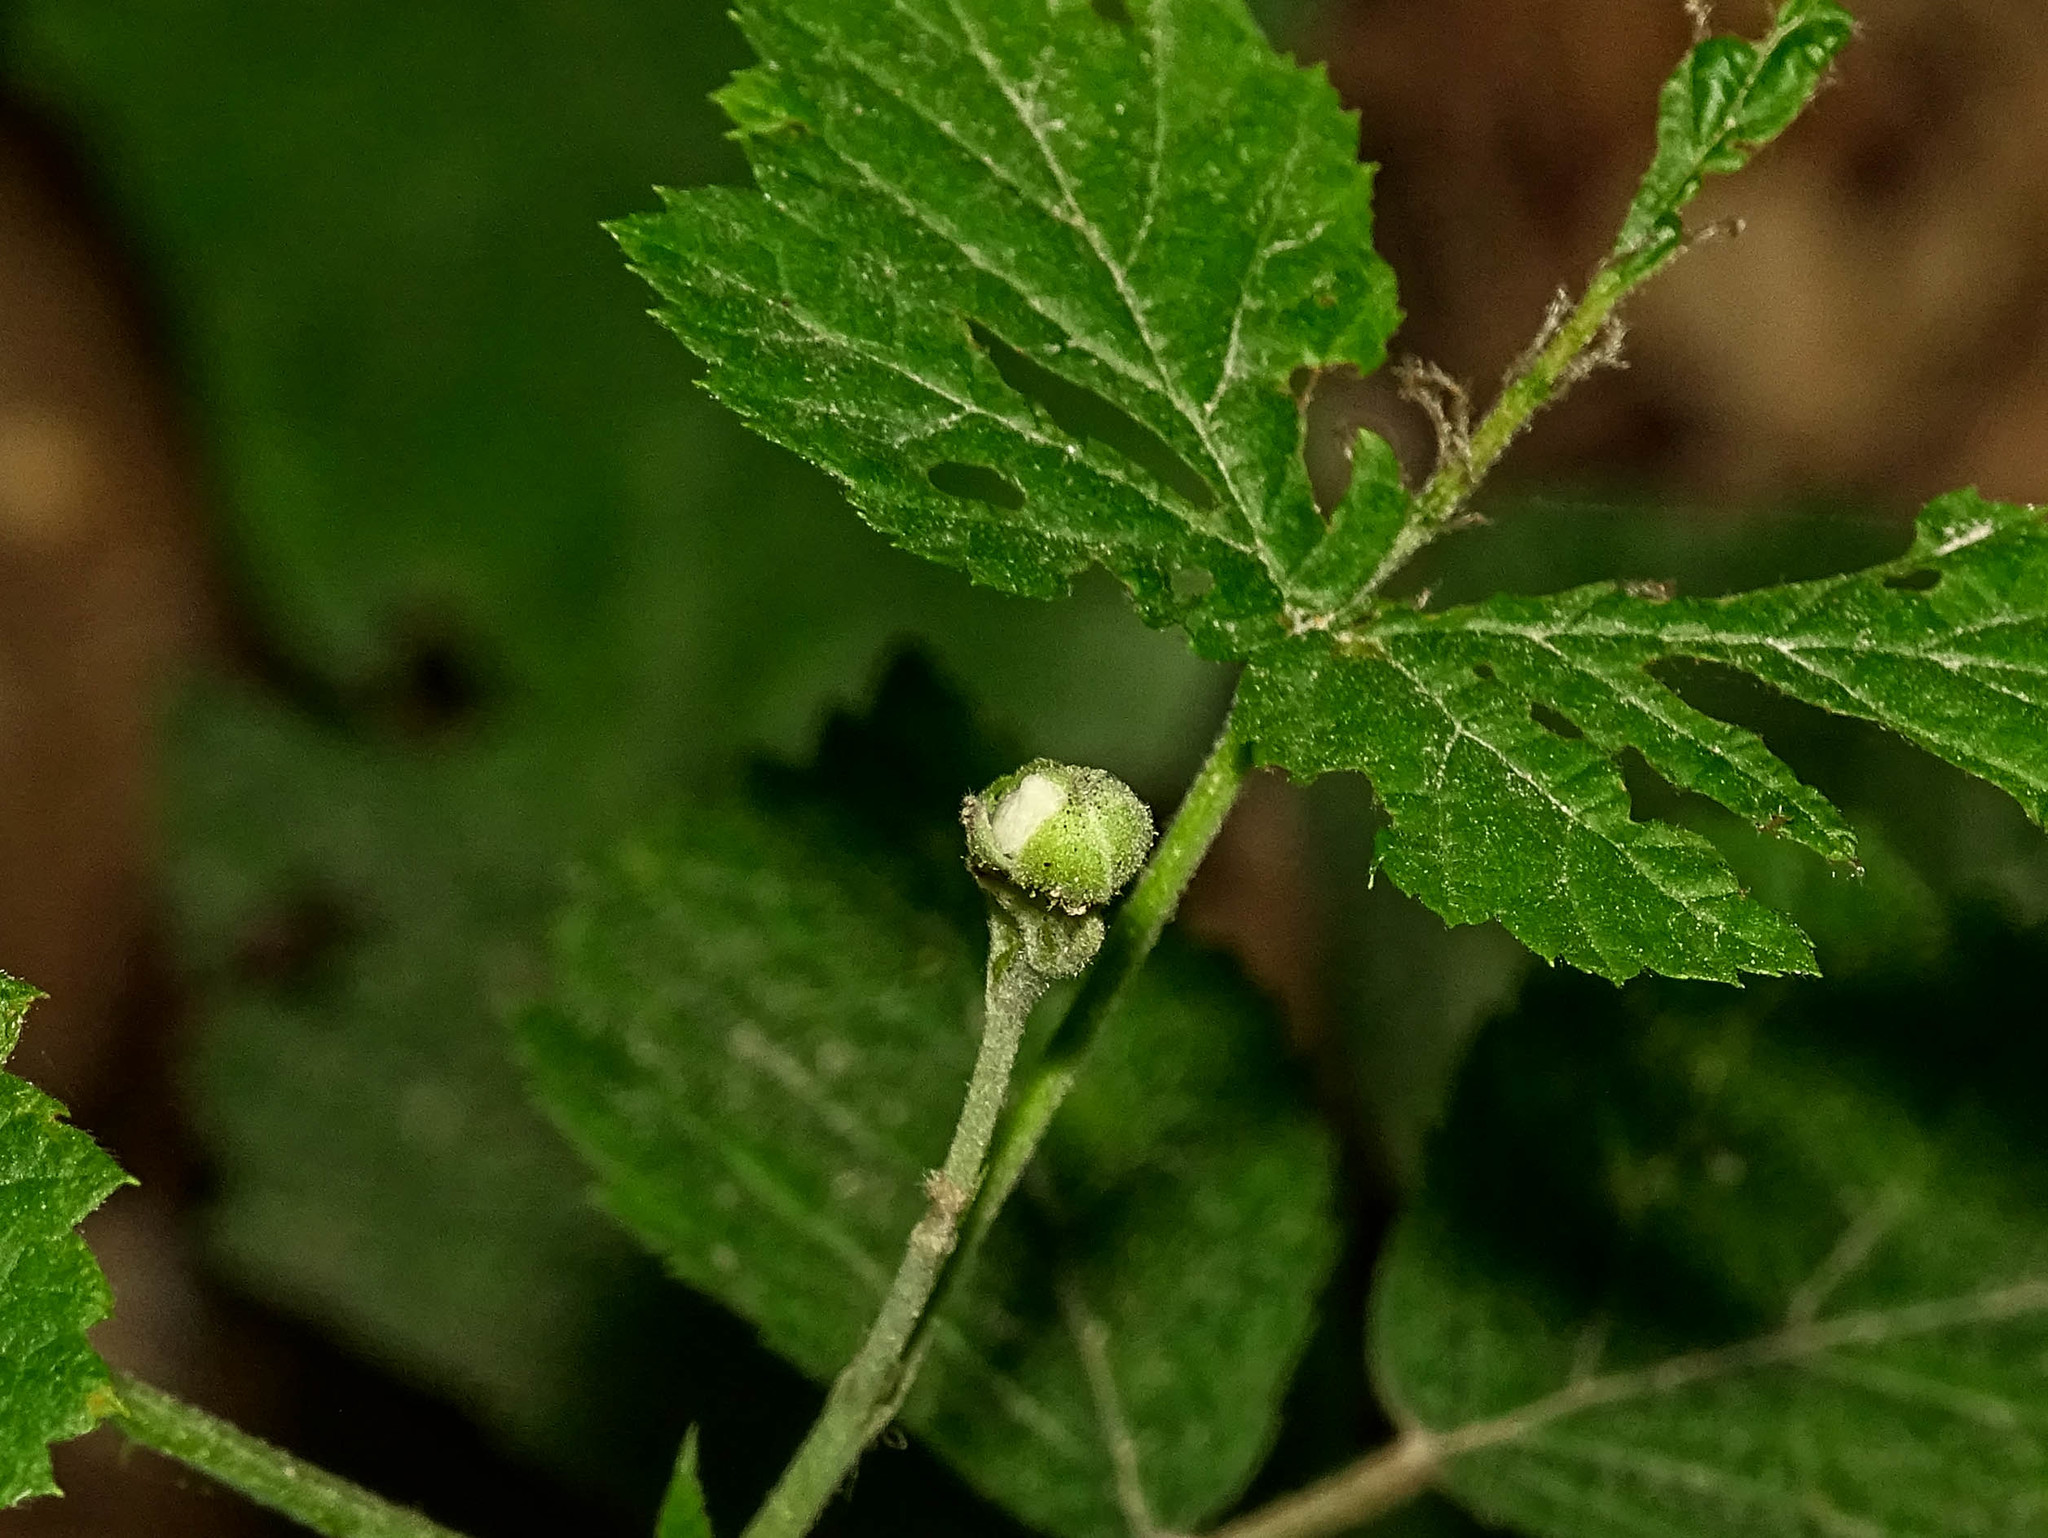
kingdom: Plantae
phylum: Tracheophyta
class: Magnoliopsida
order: Rosales
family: Rosaceae
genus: Rubus
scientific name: Rubus caesius
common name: Dewberry
